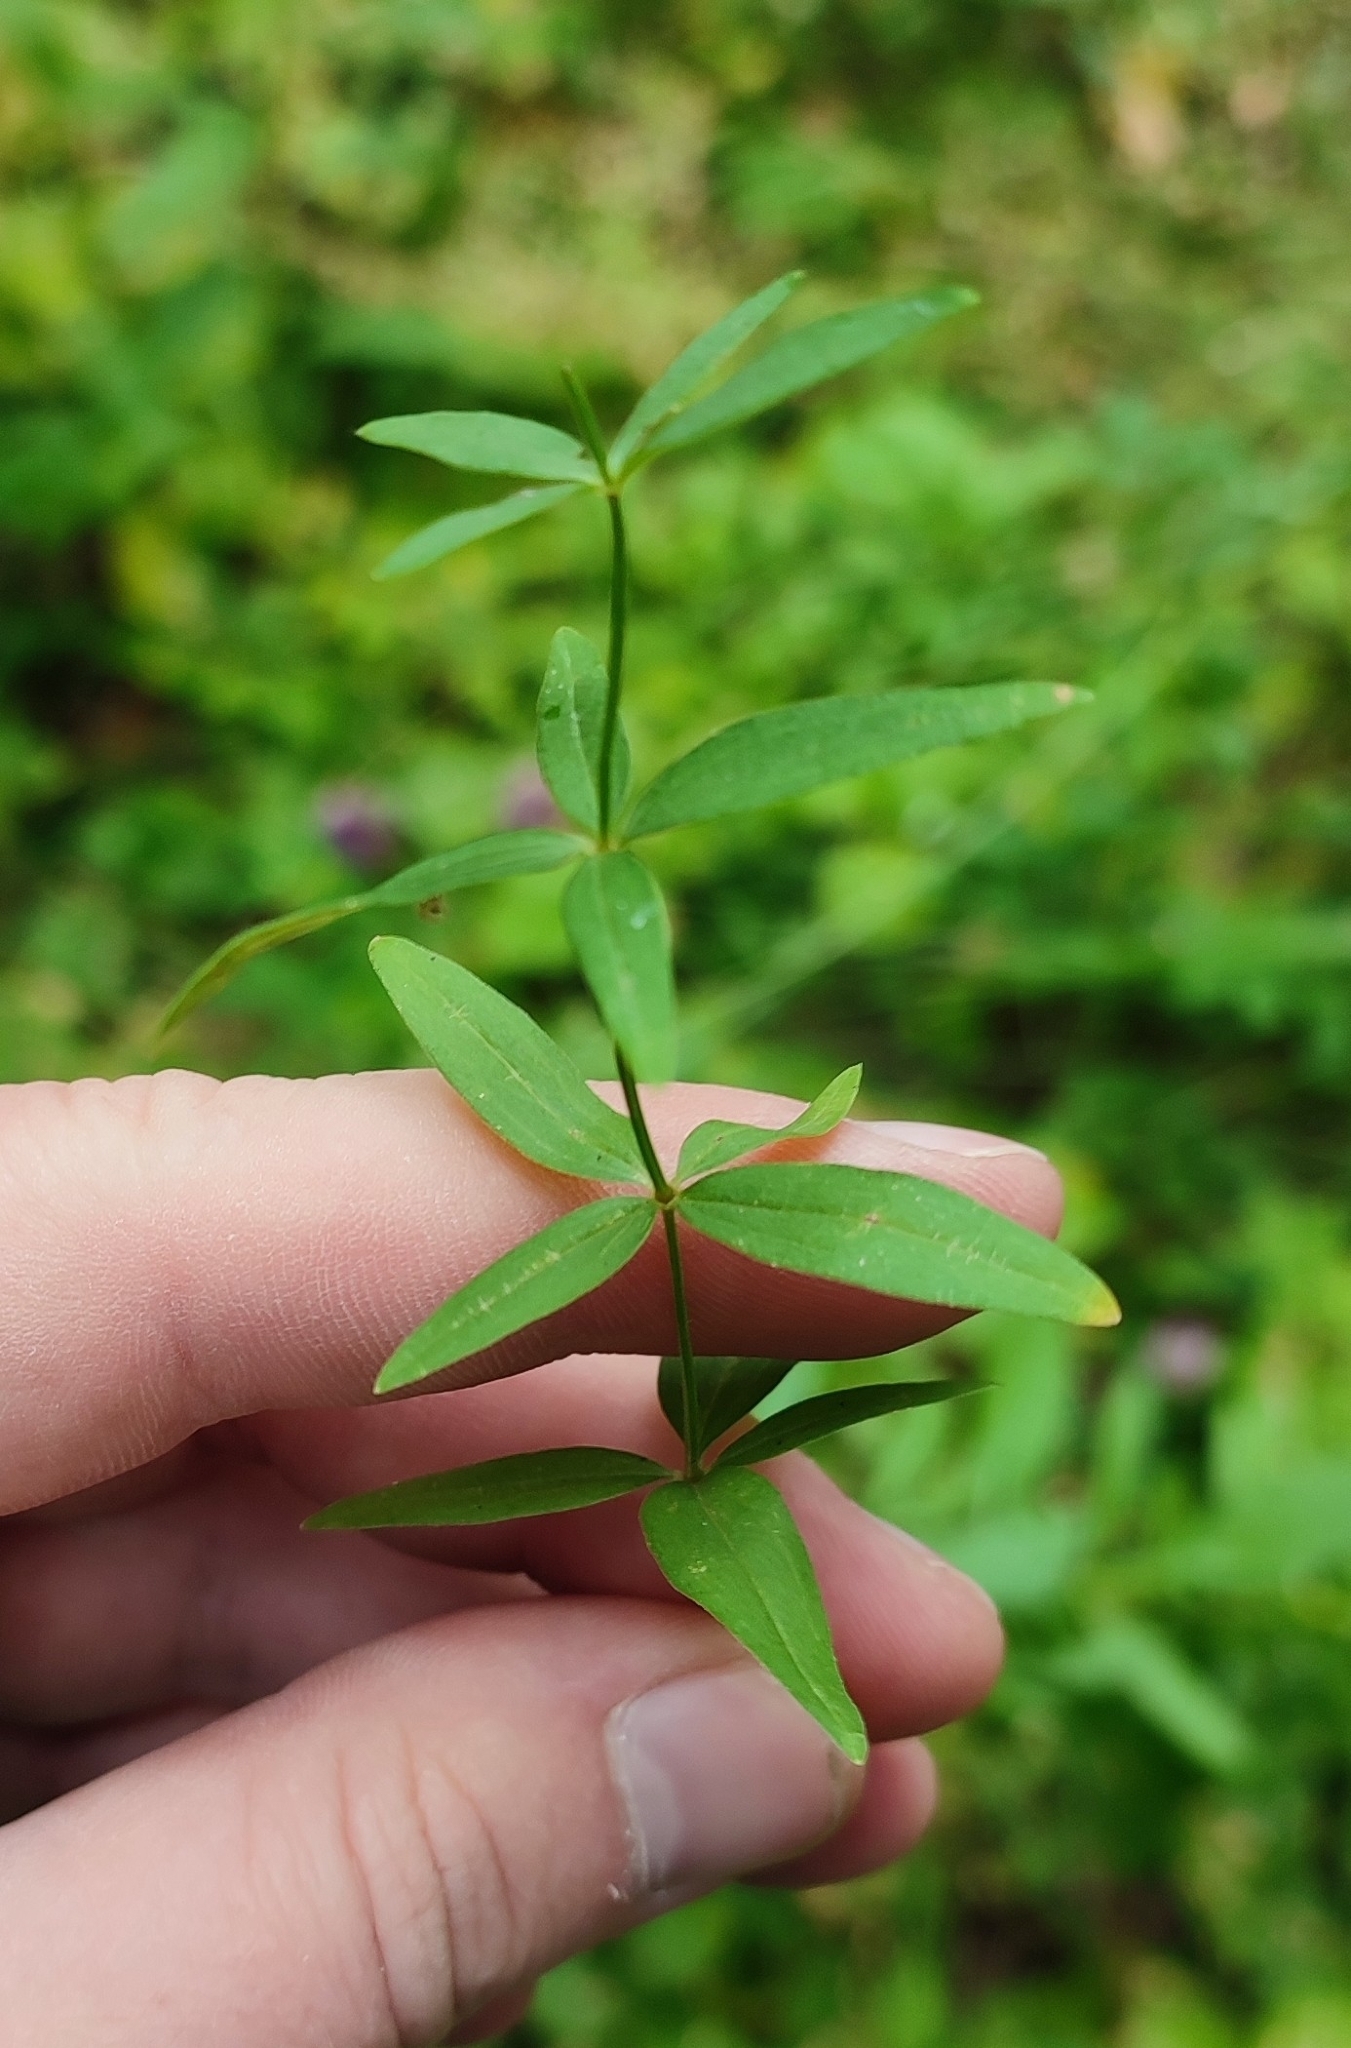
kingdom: Plantae
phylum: Tracheophyta
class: Magnoliopsida
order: Gentianales
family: Rubiaceae
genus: Galium
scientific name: Galium boreale
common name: Northern bedstraw
